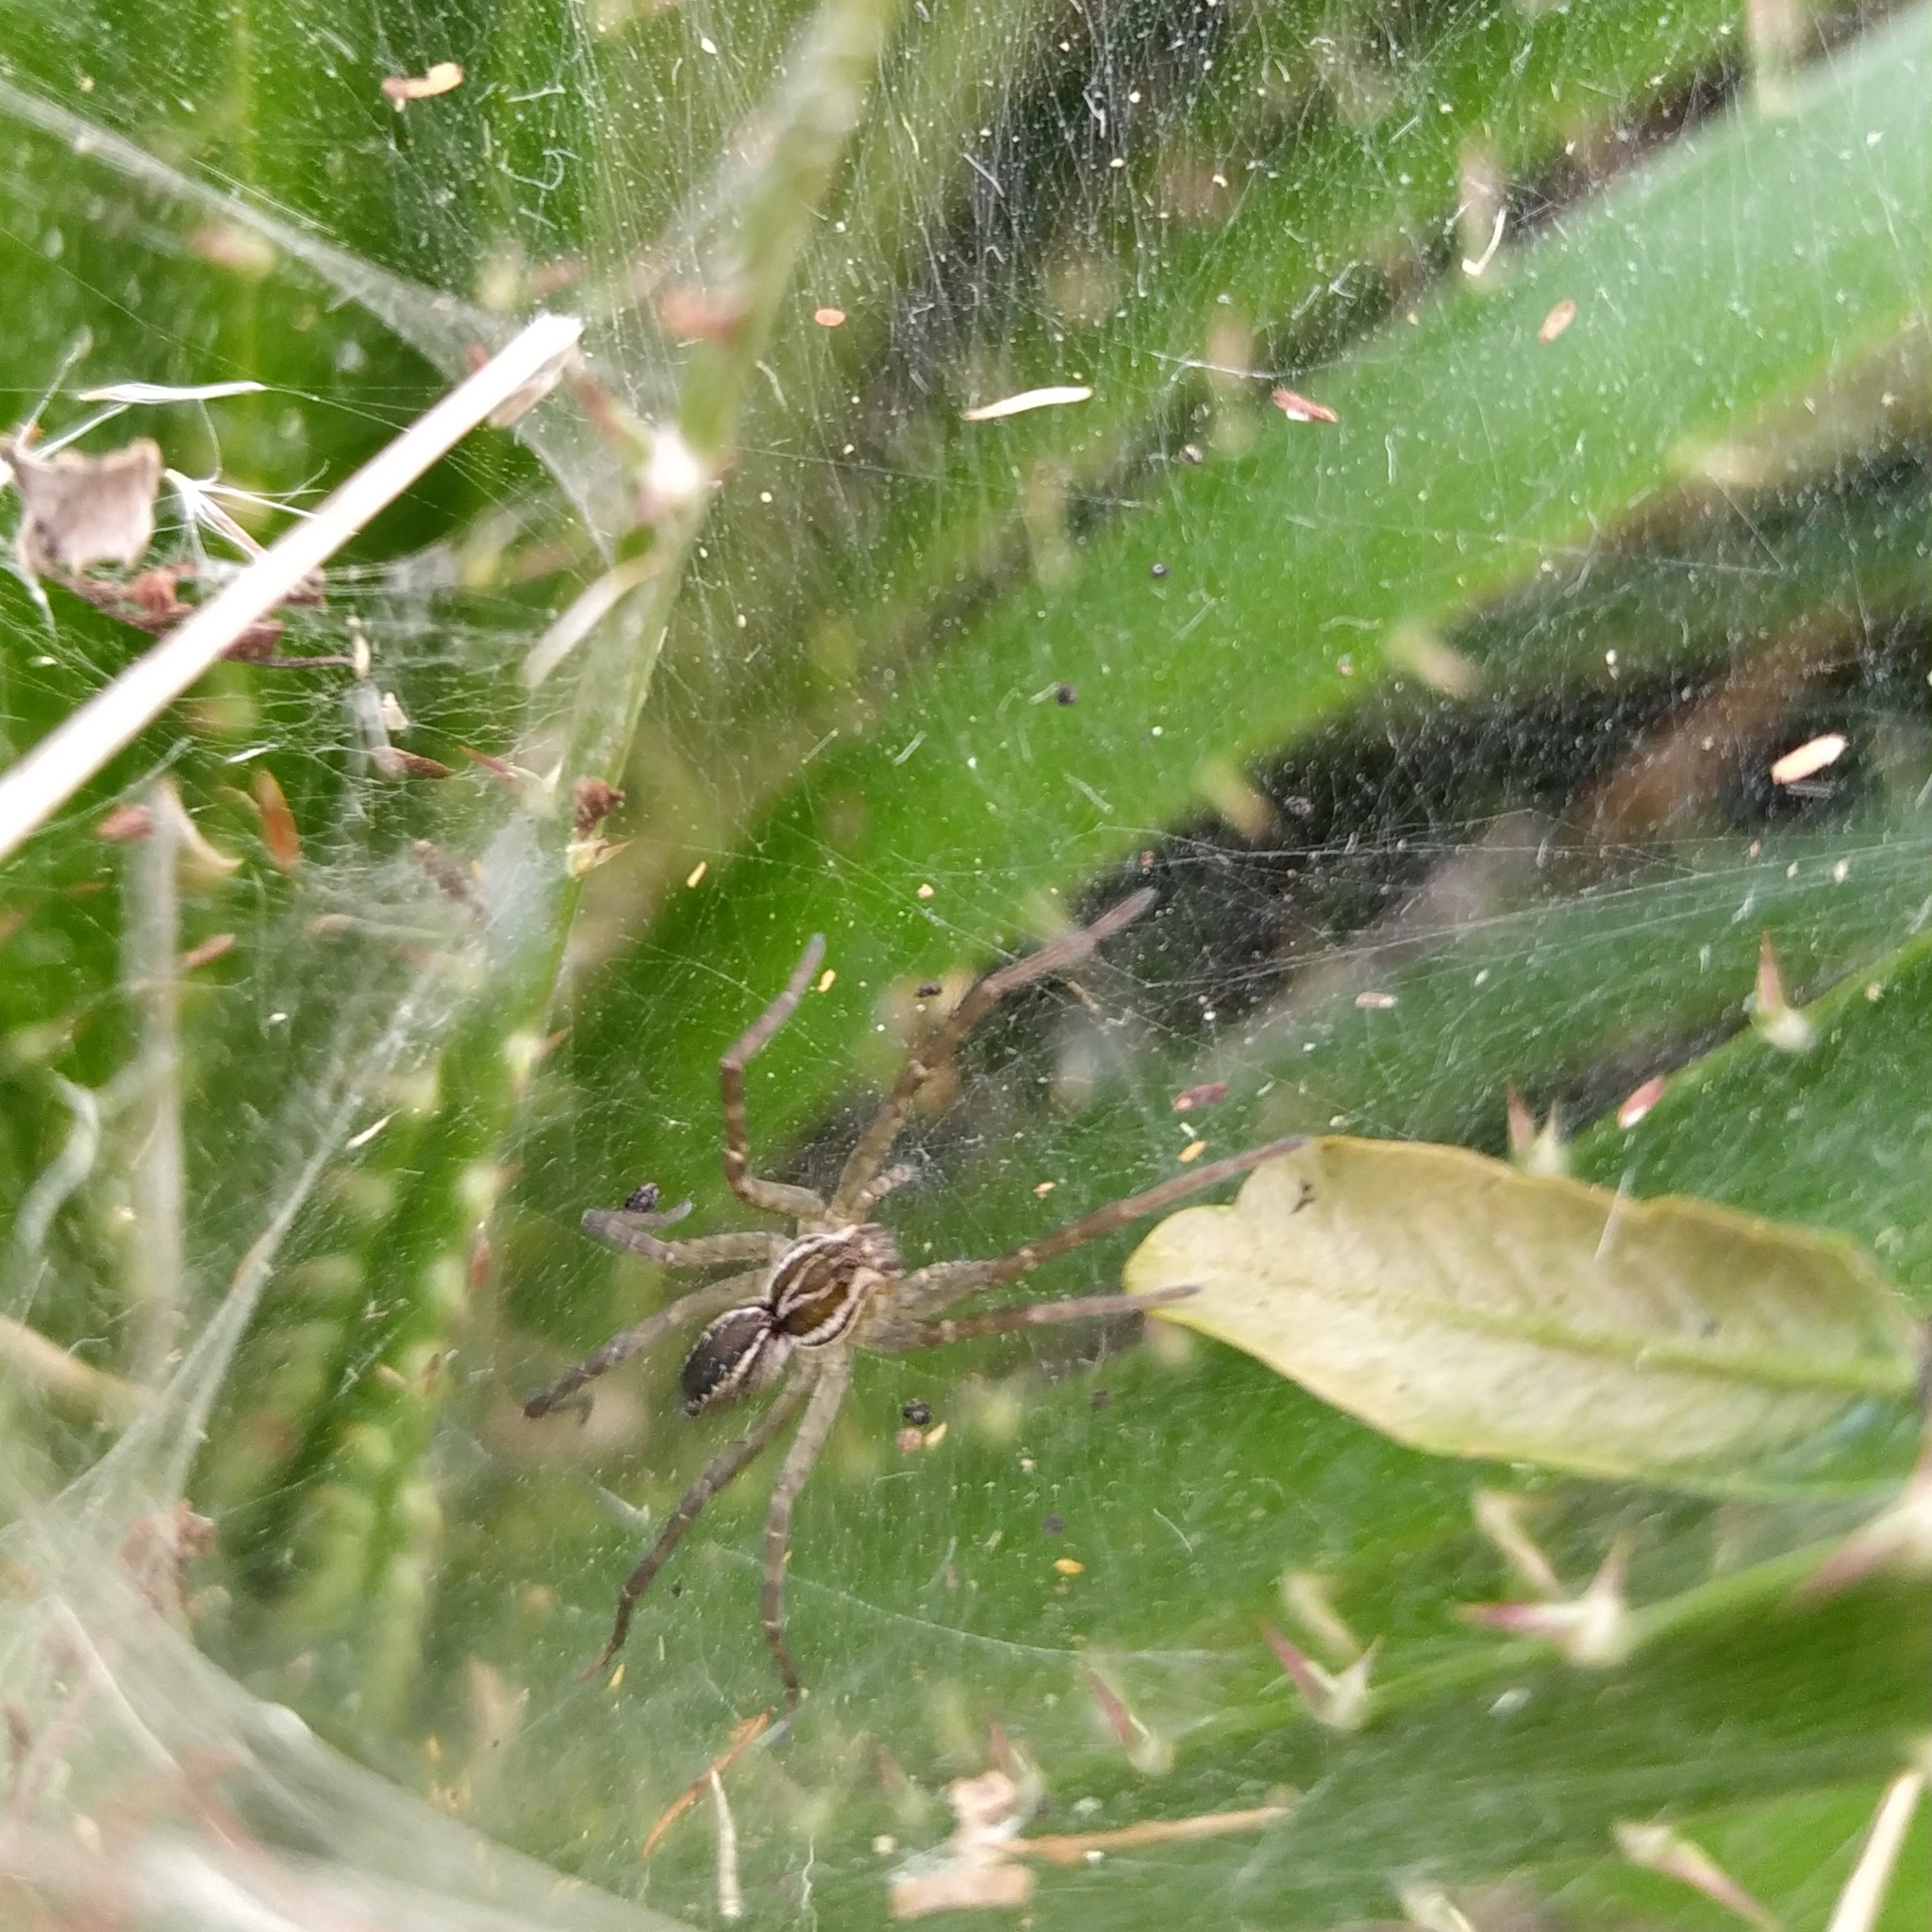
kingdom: Animalia
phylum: Arthropoda
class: Arachnida
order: Araneae
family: Lycosidae
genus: Aglaoctenus
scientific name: Aglaoctenus lagotis
